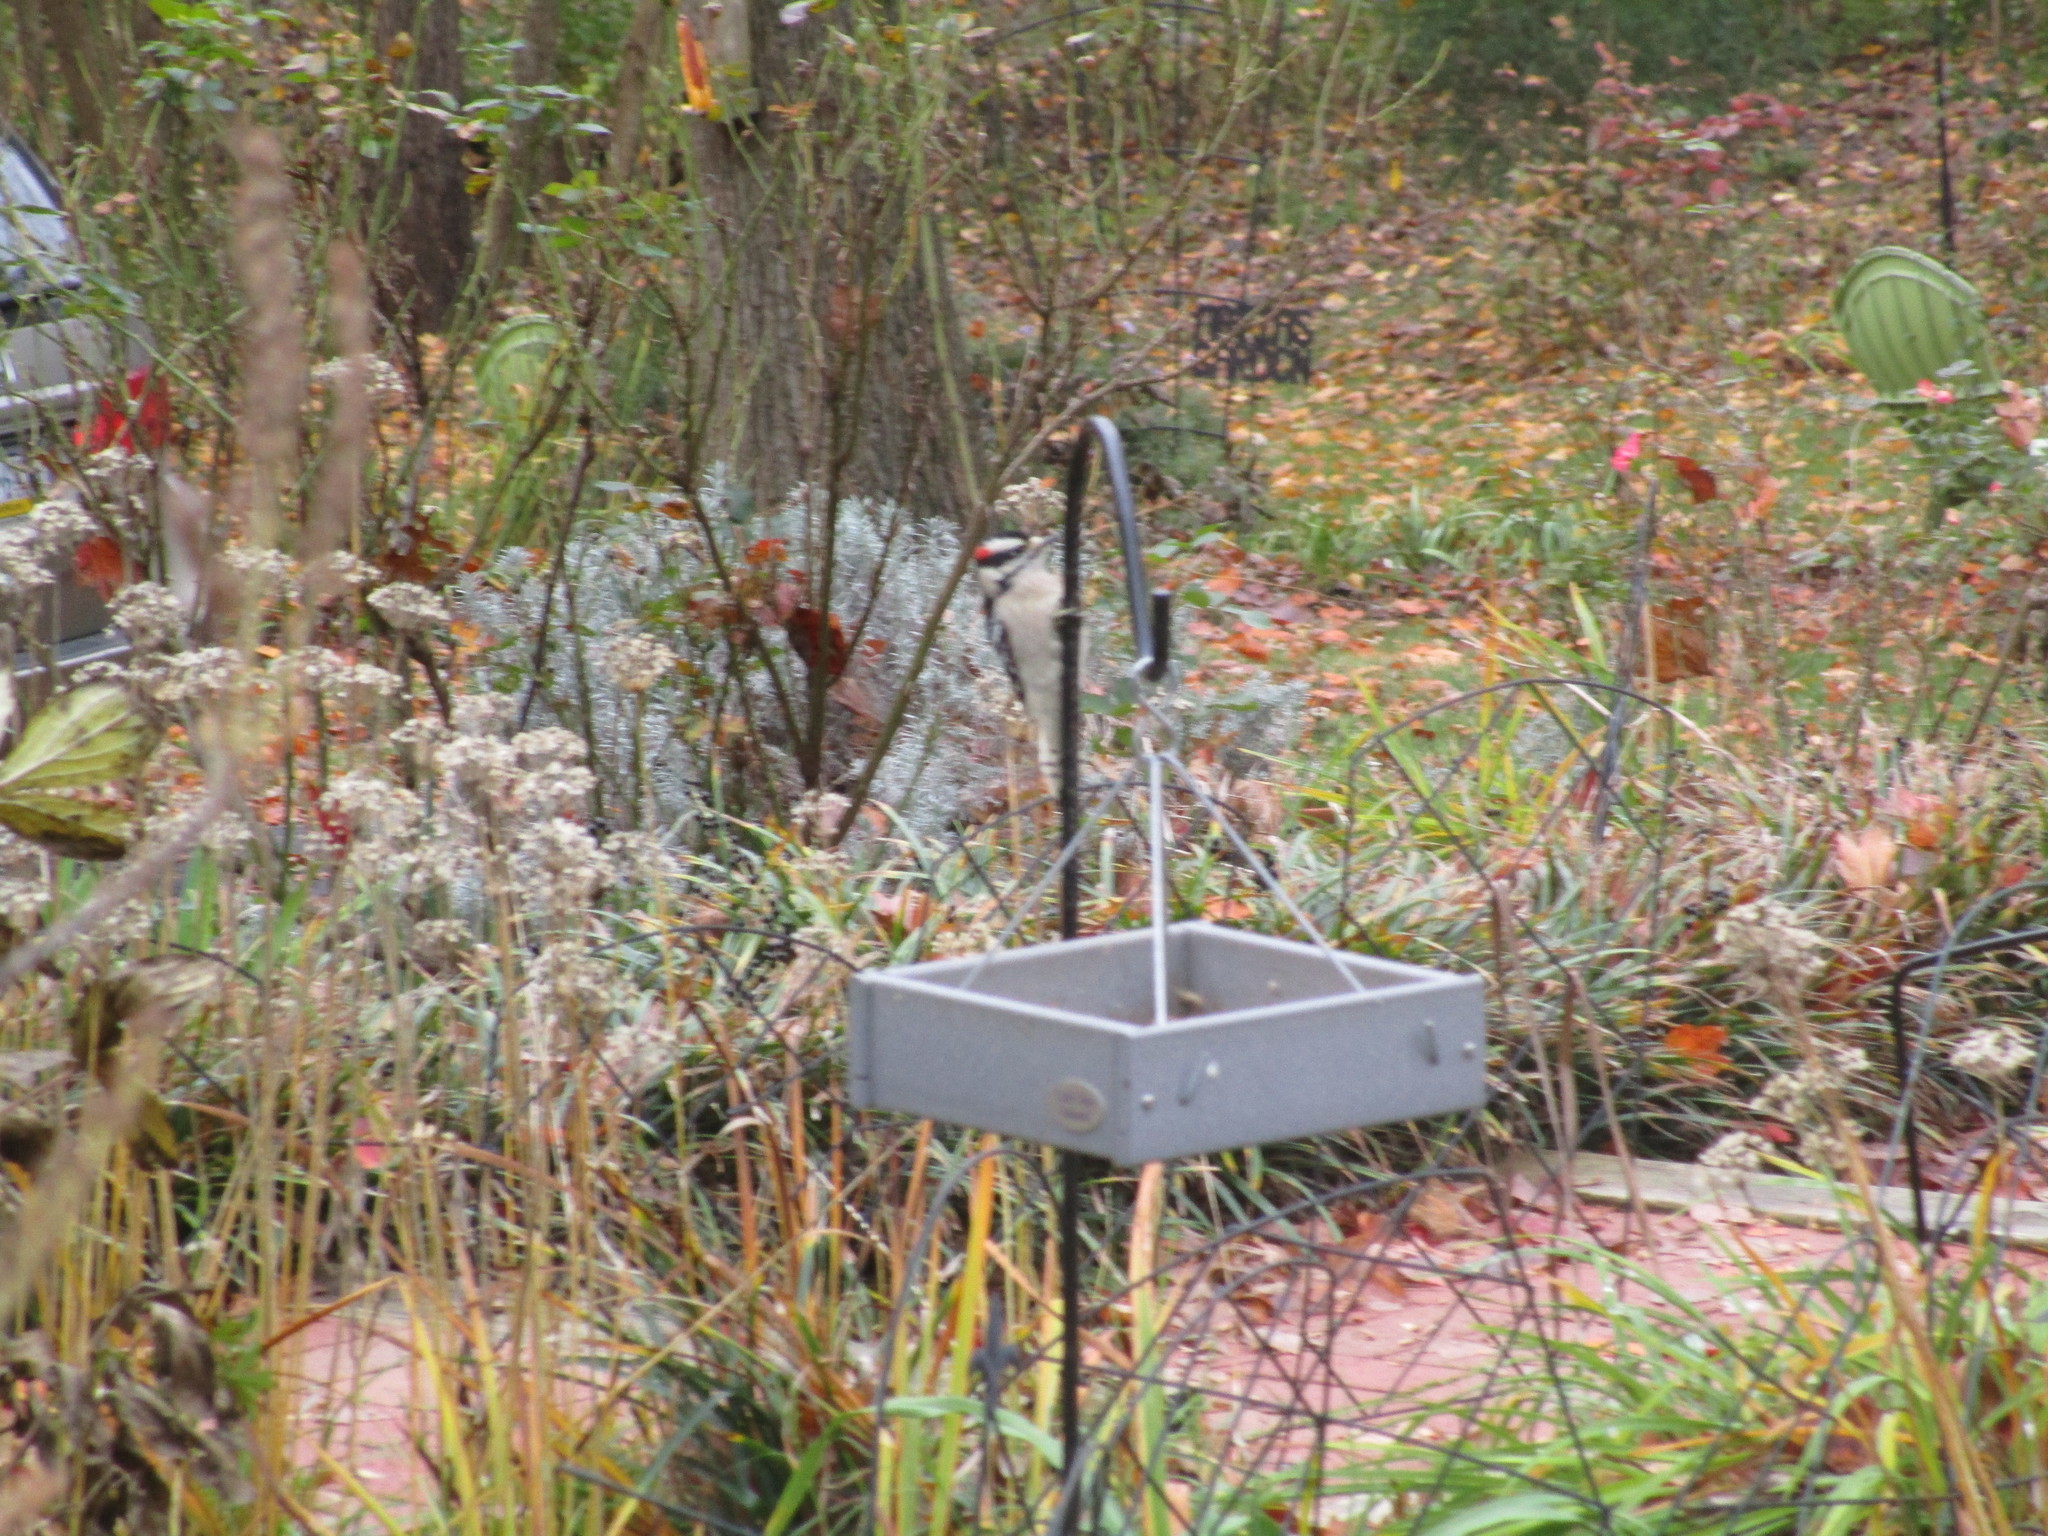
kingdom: Animalia
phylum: Chordata
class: Aves
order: Piciformes
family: Picidae
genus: Dryobates
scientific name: Dryobates pubescens
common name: Downy woodpecker
